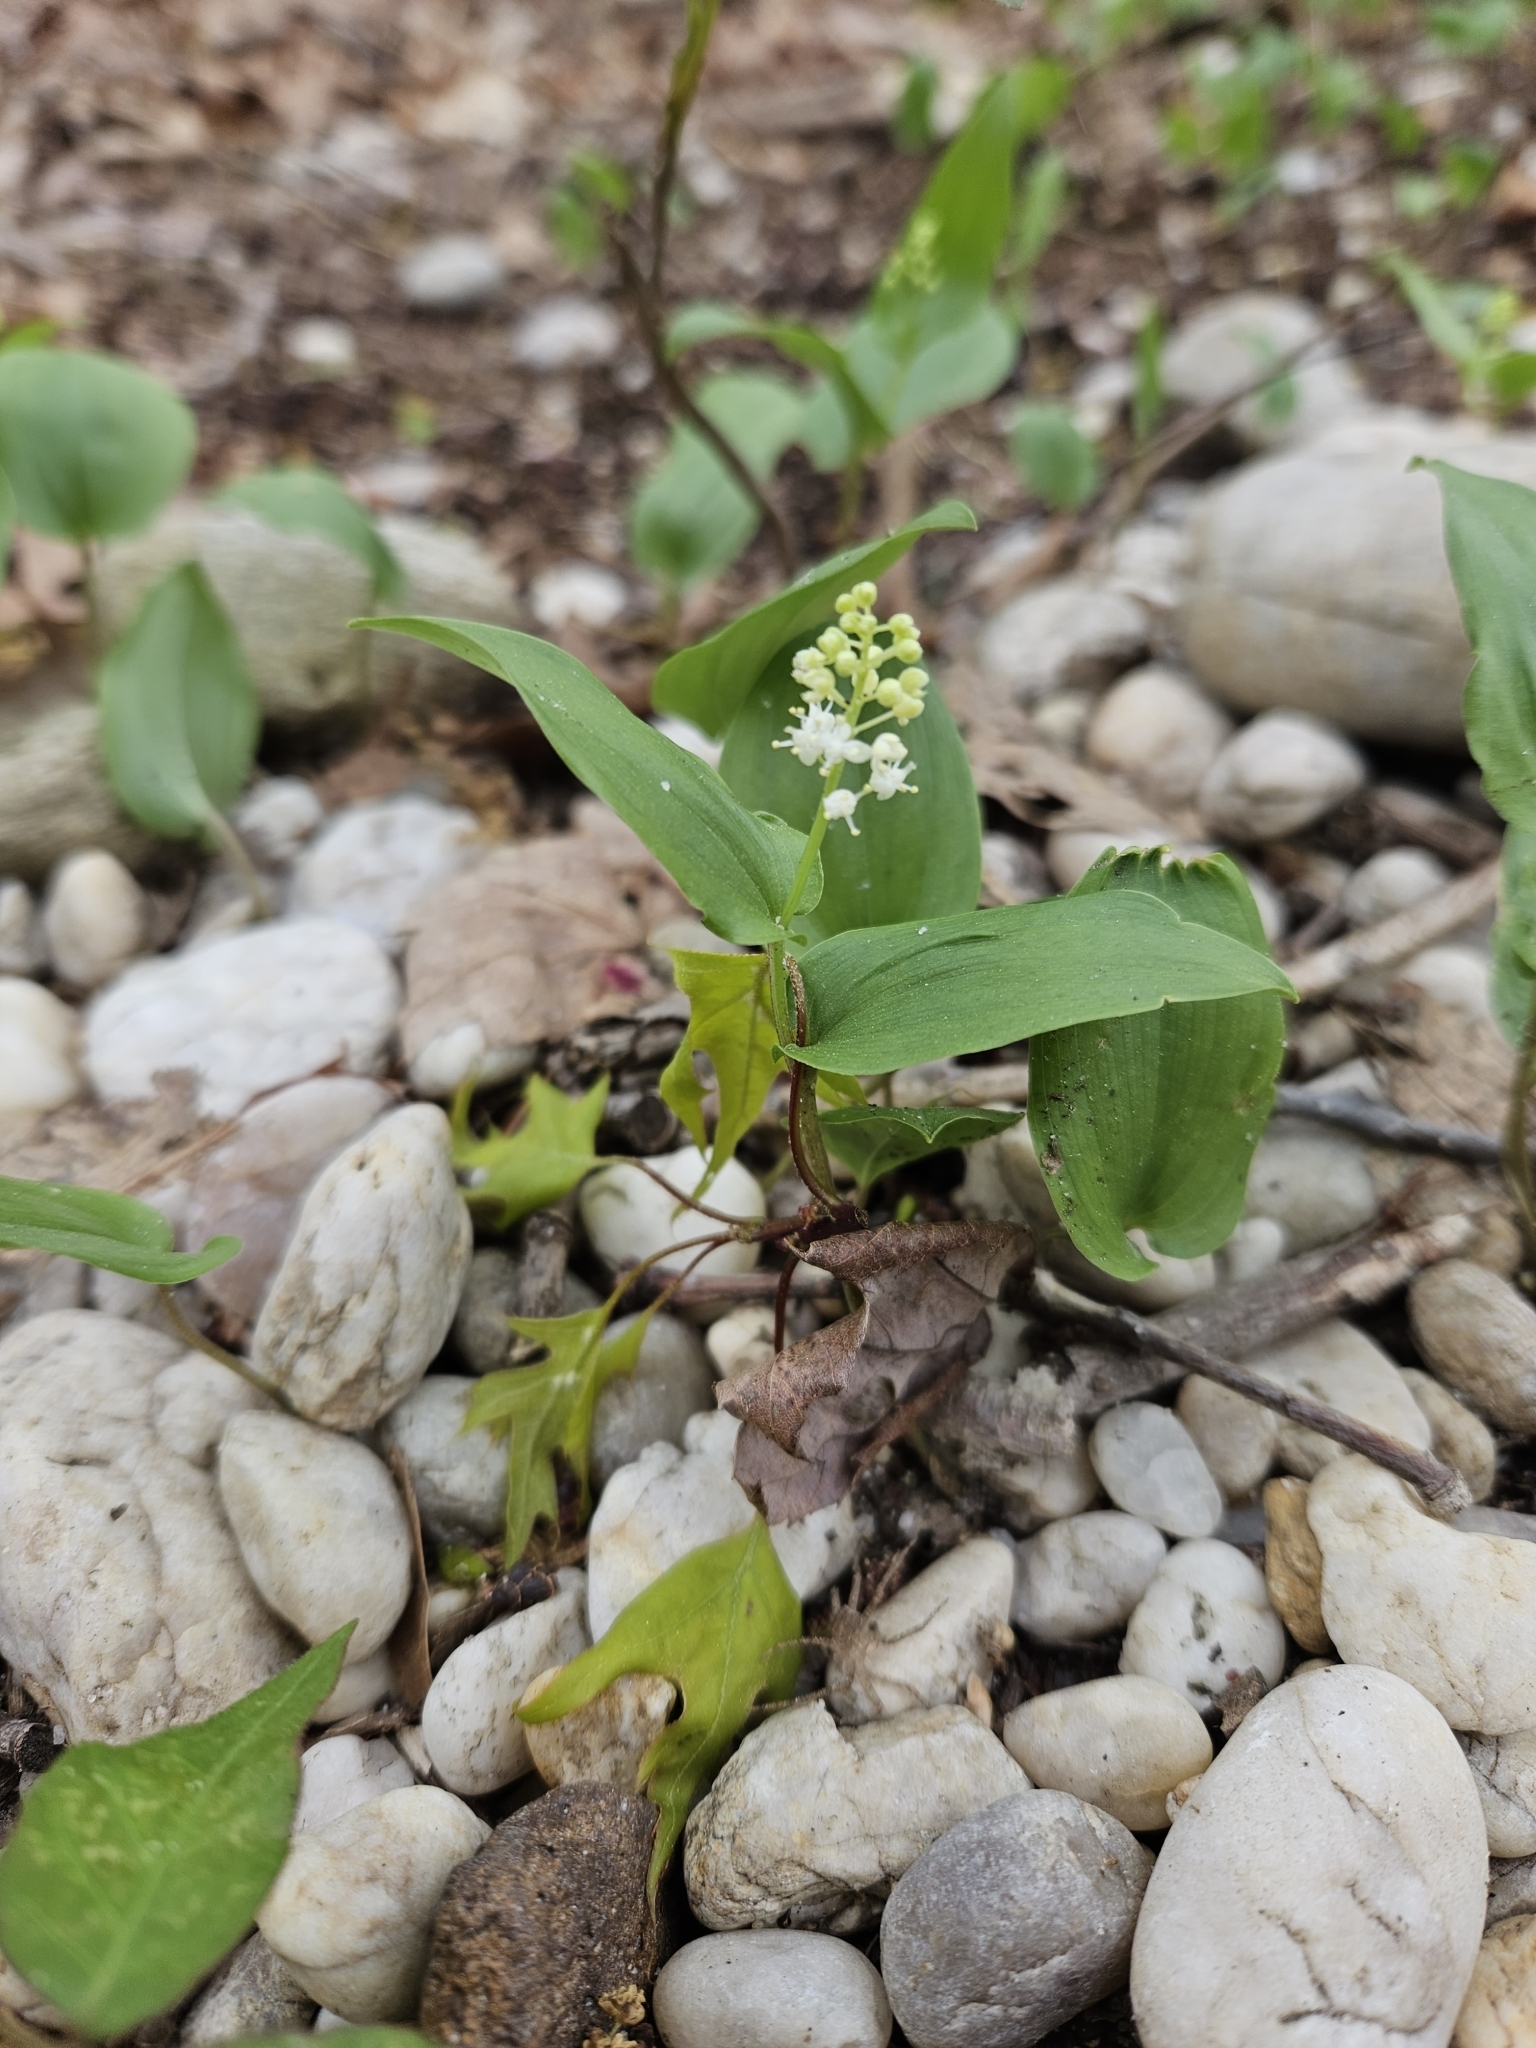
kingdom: Plantae
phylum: Tracheophyta
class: Liliopsida
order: Asparagales
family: Asparagaceae
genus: Maianthemum
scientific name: Maianthemum canadense
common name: False lily-of-the-valley
